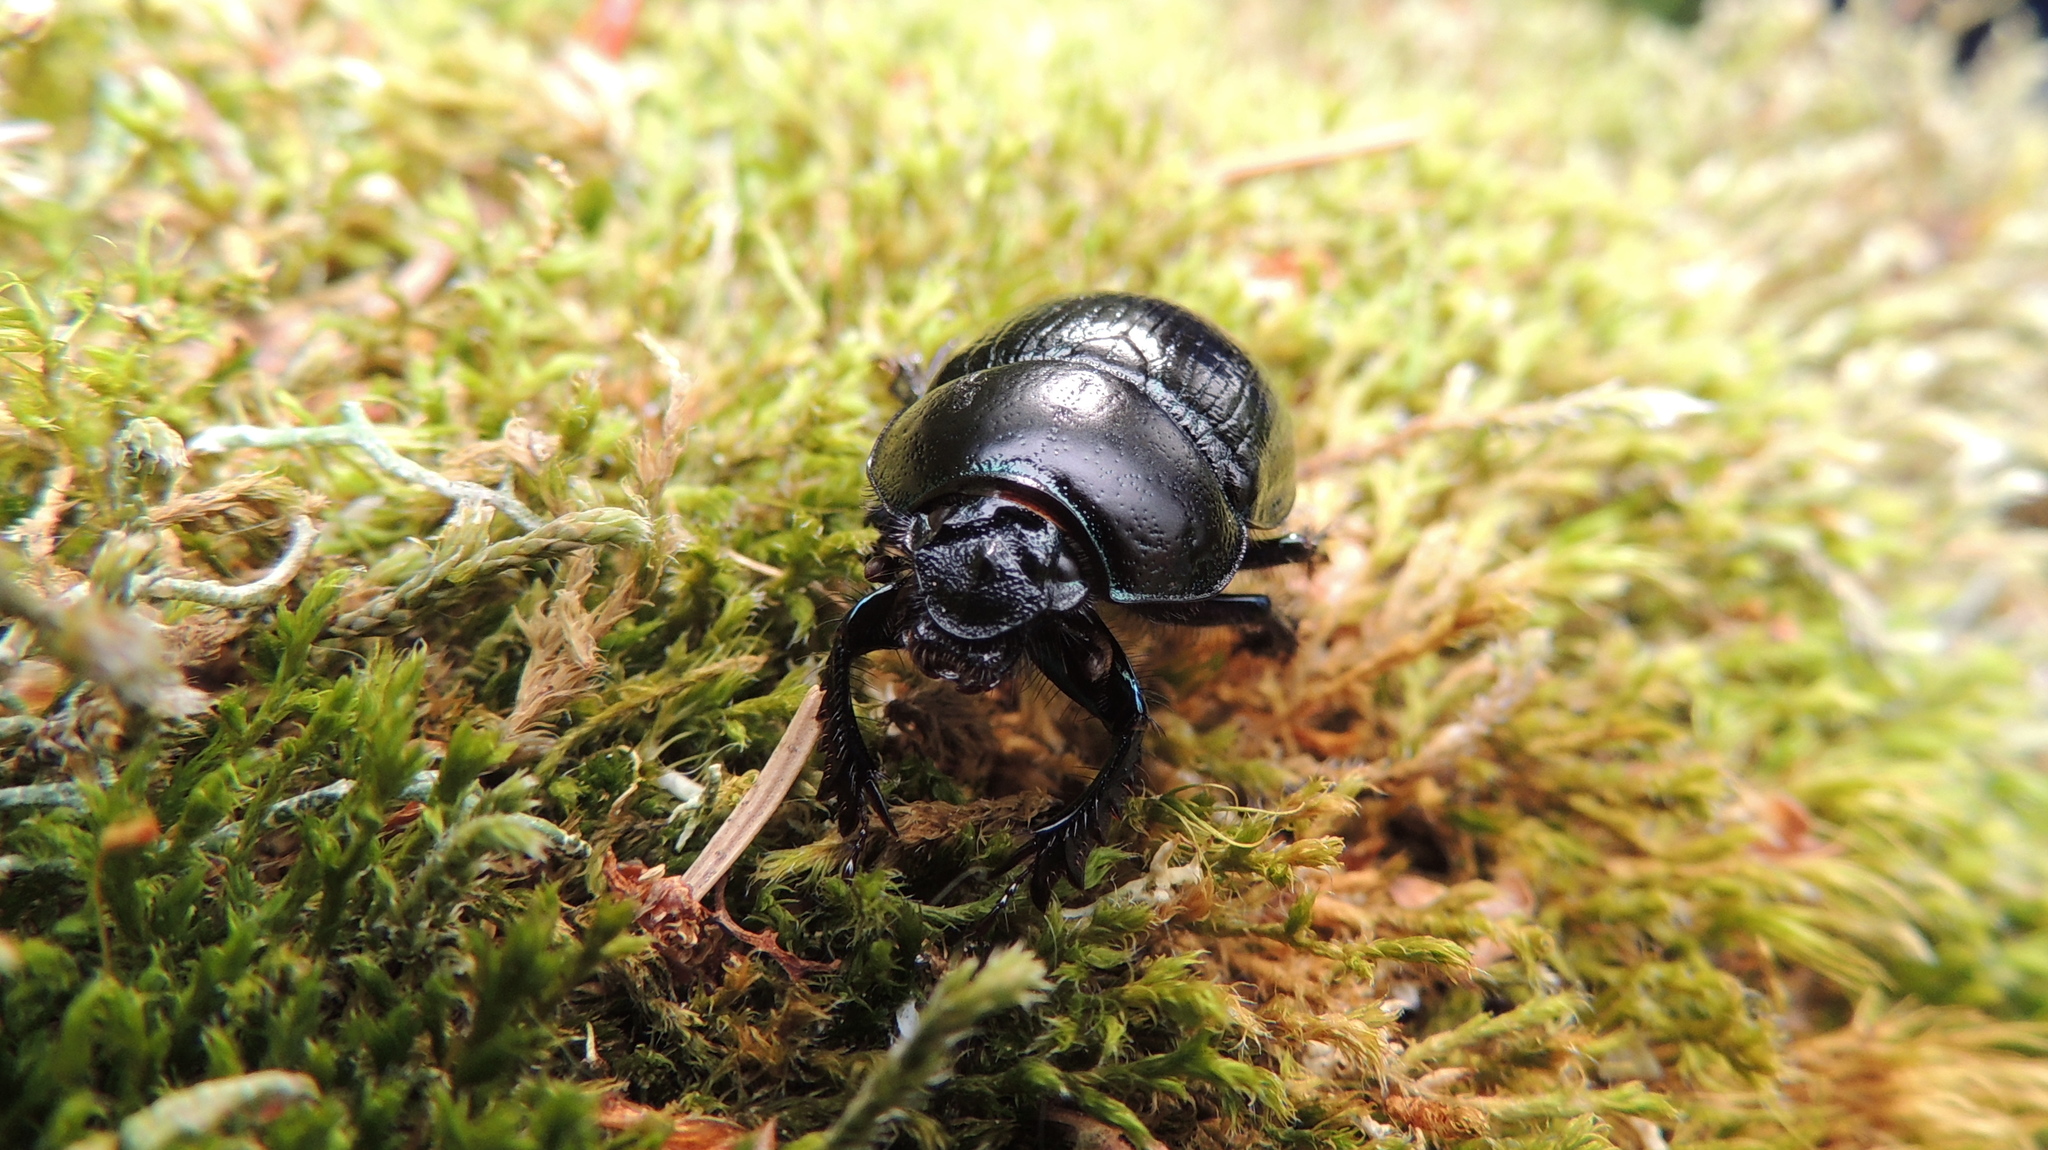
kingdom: Animalia
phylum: Arthropoda
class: Insecta
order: Coleoptera
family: Geotrupidae
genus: Anoplotrupes
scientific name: Anoplotrupes stercorosus
